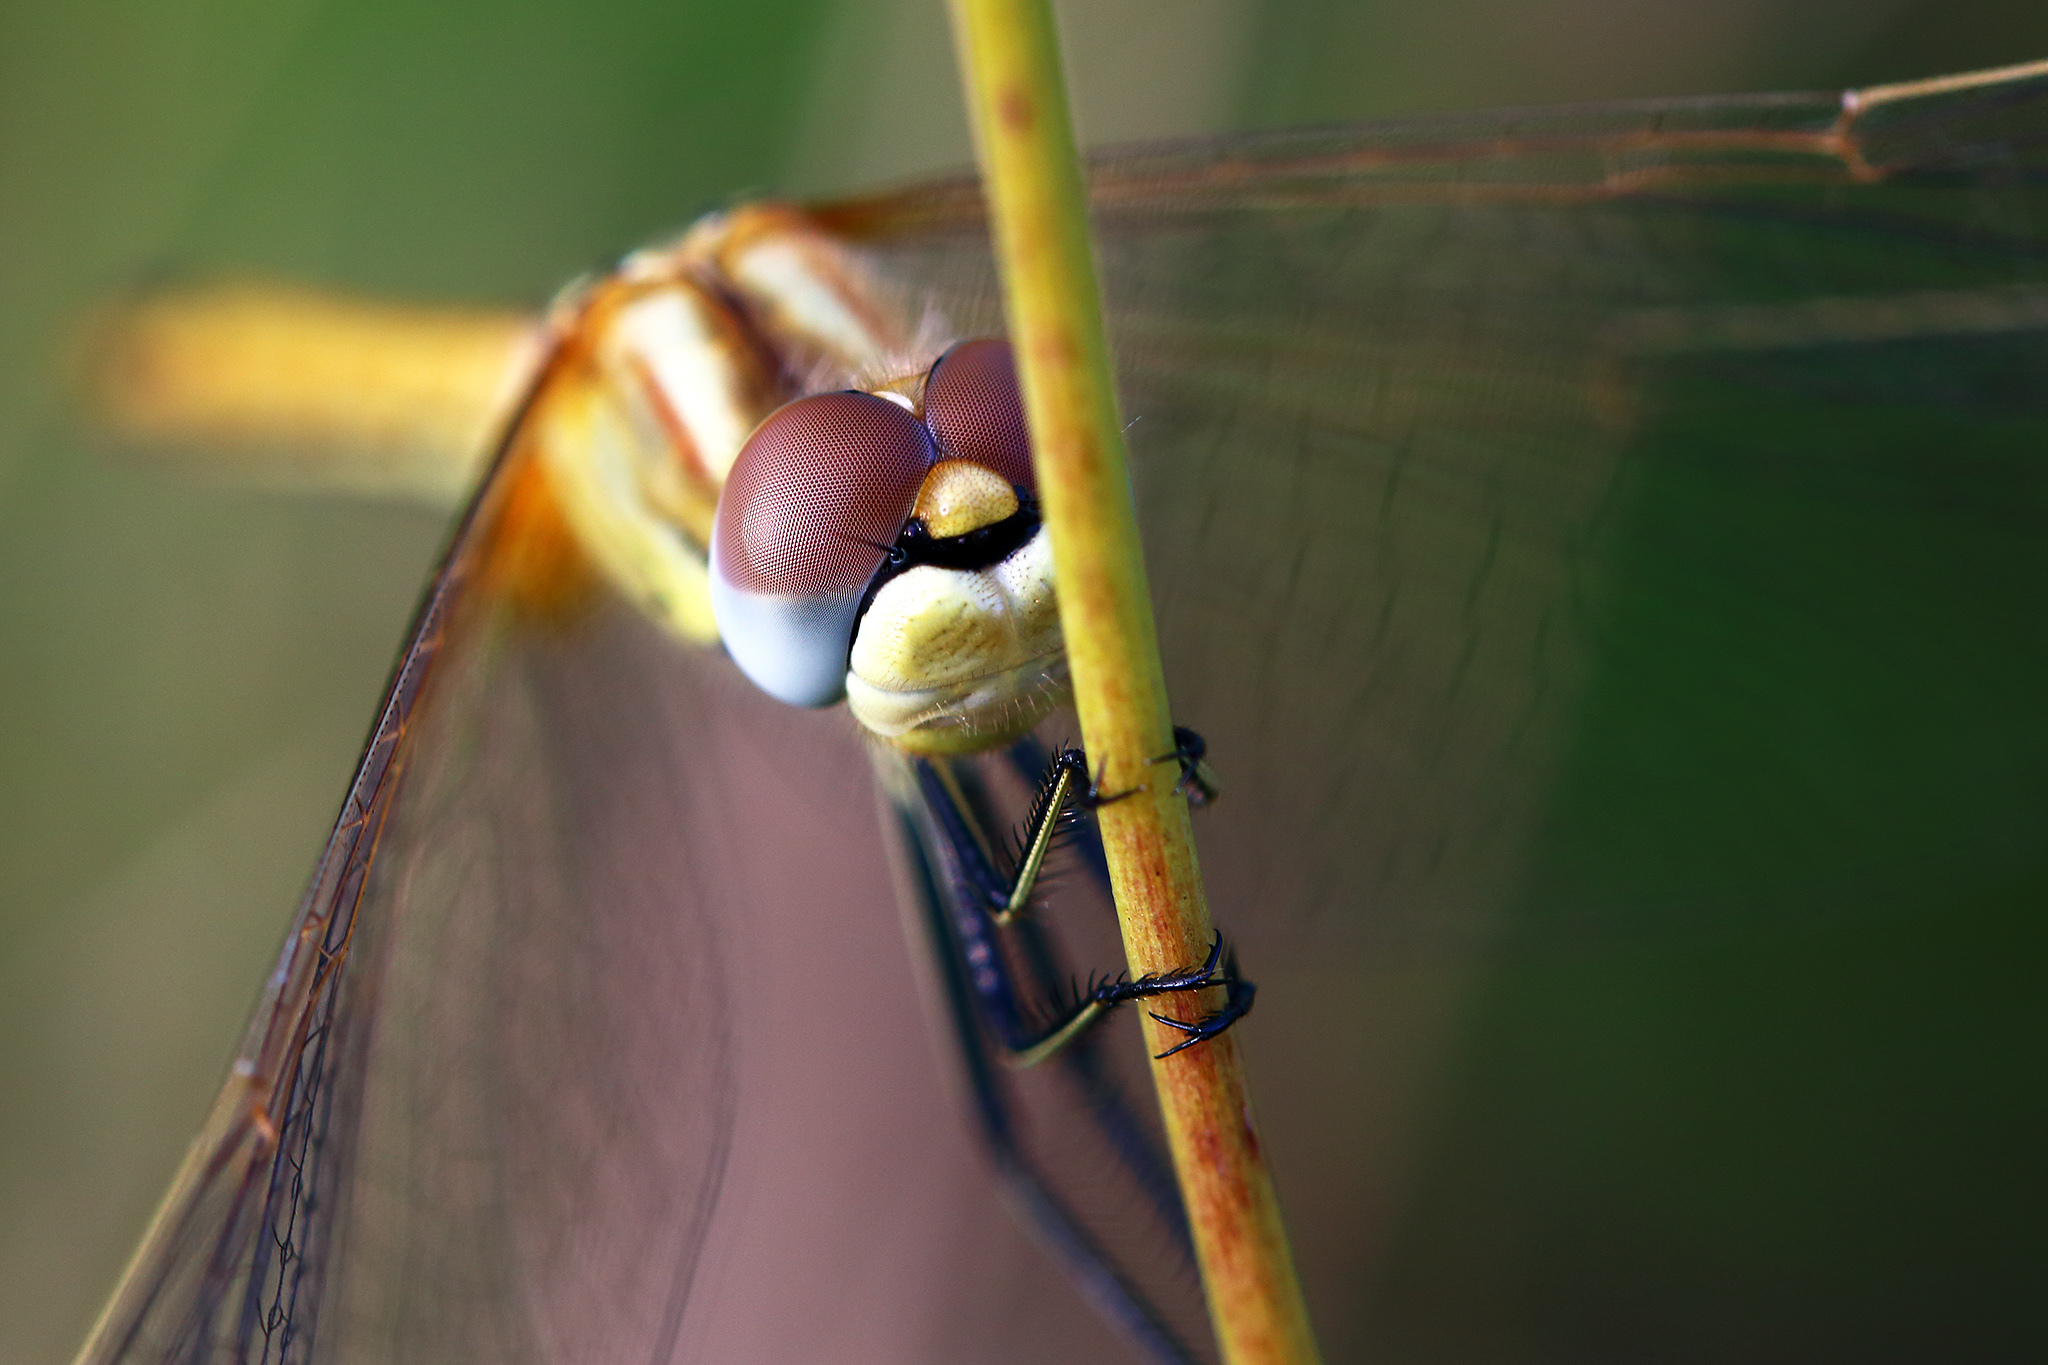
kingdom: Animalia
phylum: Arthropoda
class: Insecta
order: Odonata
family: Libellulidae
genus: Sympetrum
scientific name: Sympetrum fonscolombii
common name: Red-veined darter
